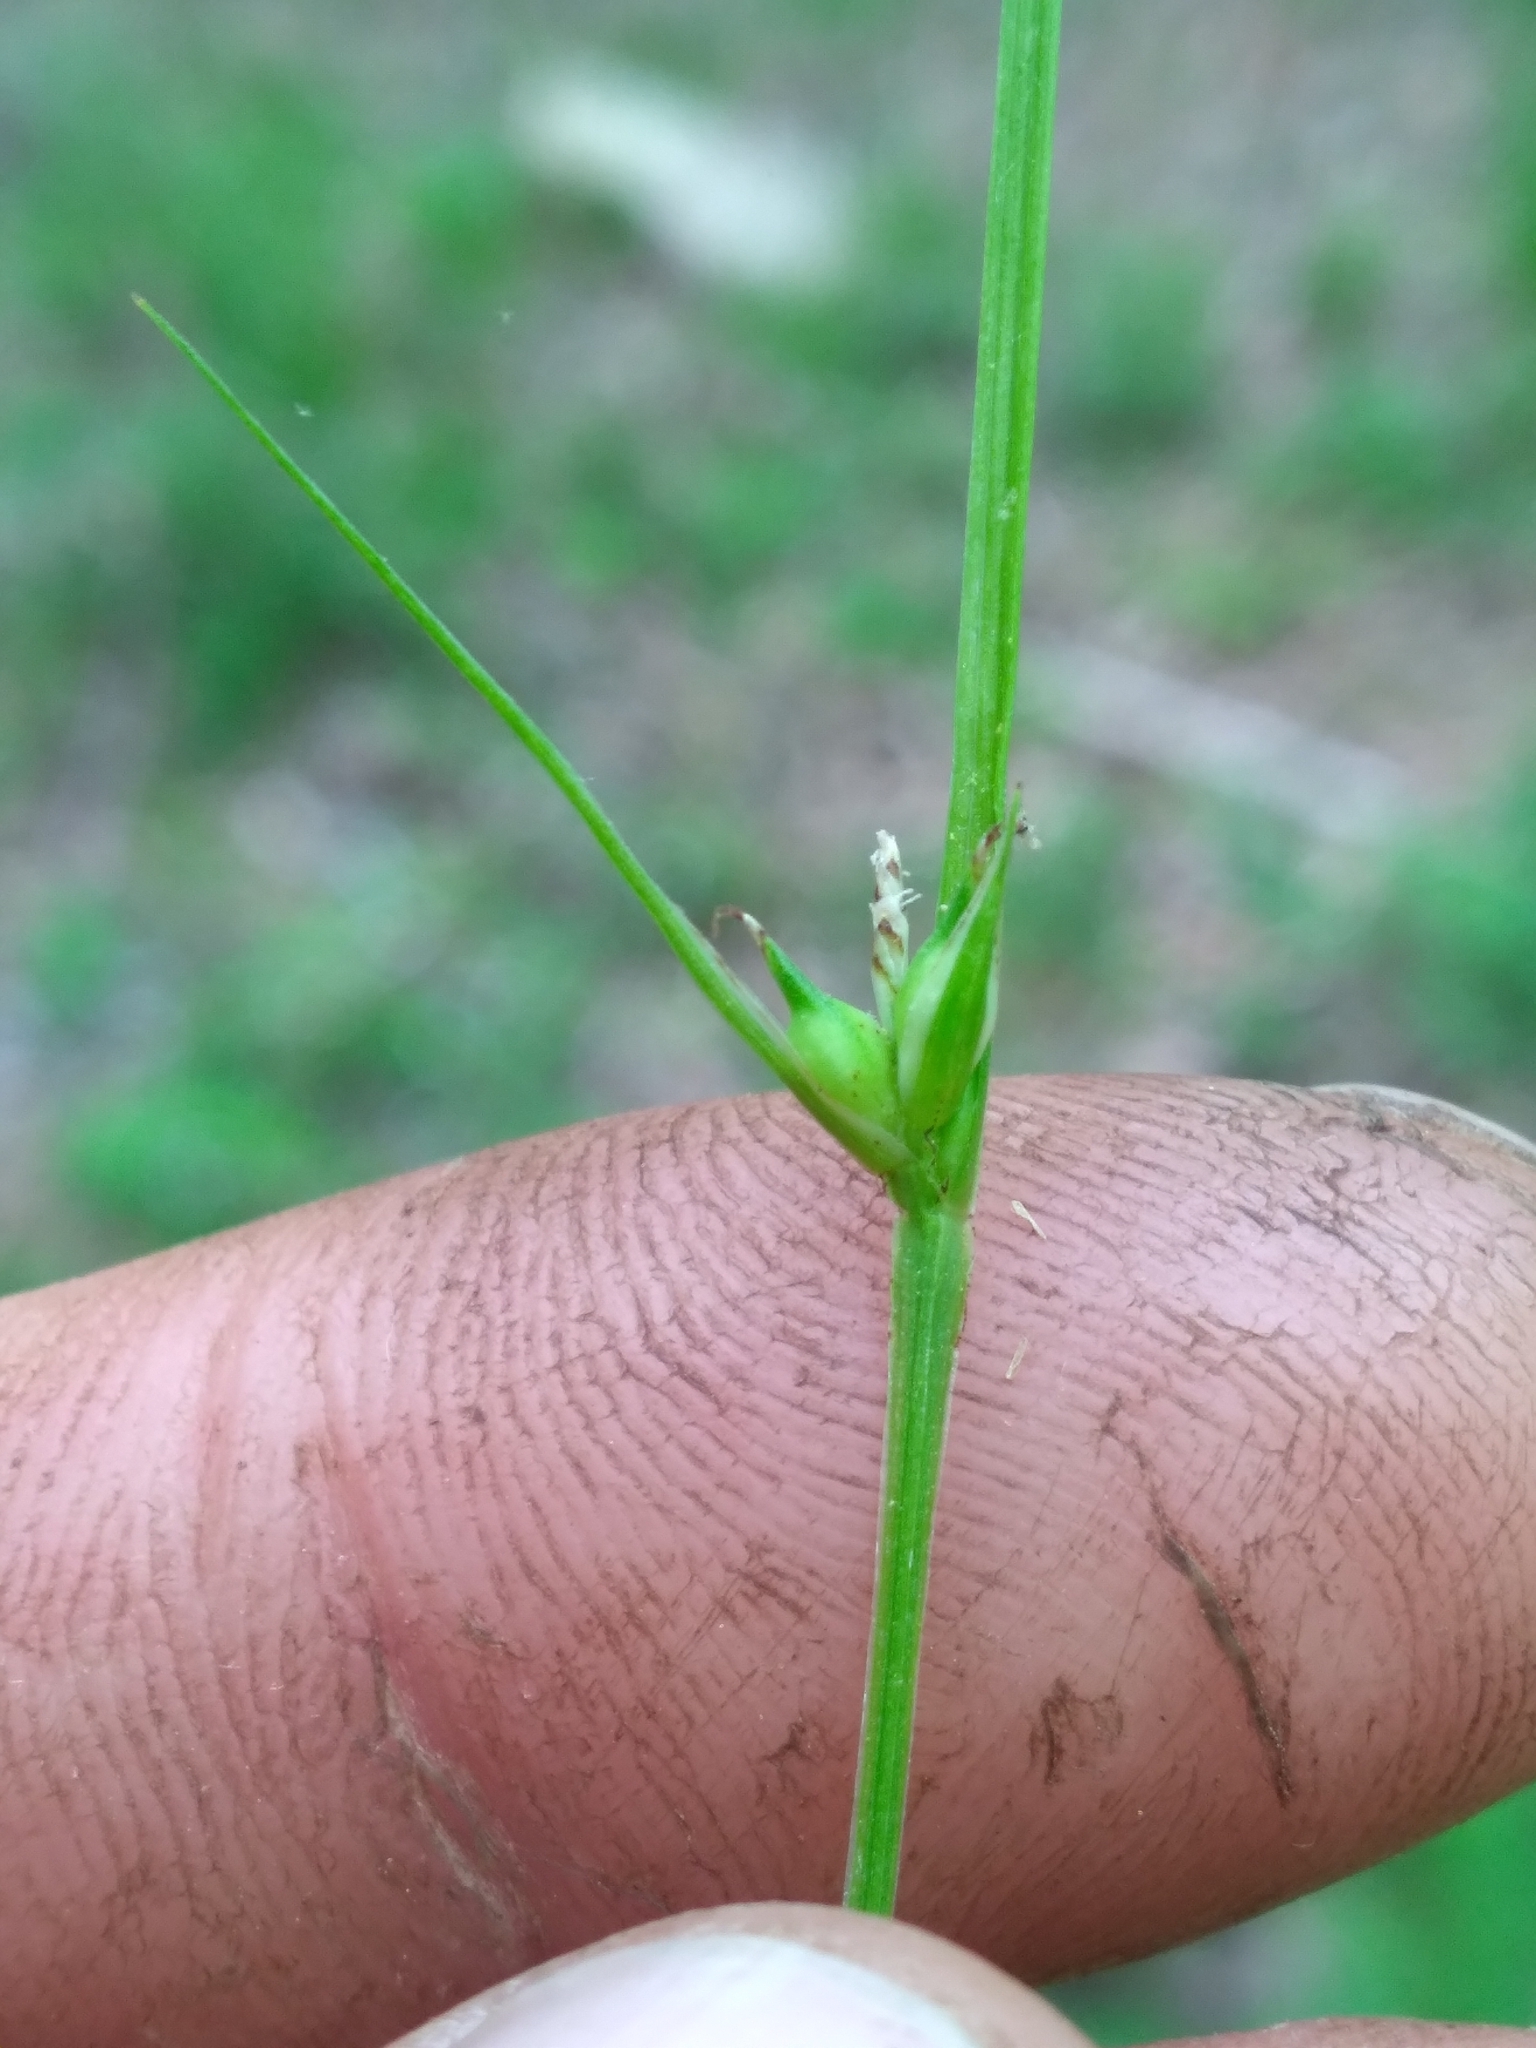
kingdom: Plantae
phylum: Tracheophyta
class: Liliopsida
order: Poales
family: Cyperaceae
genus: Carex
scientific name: Carex timida
